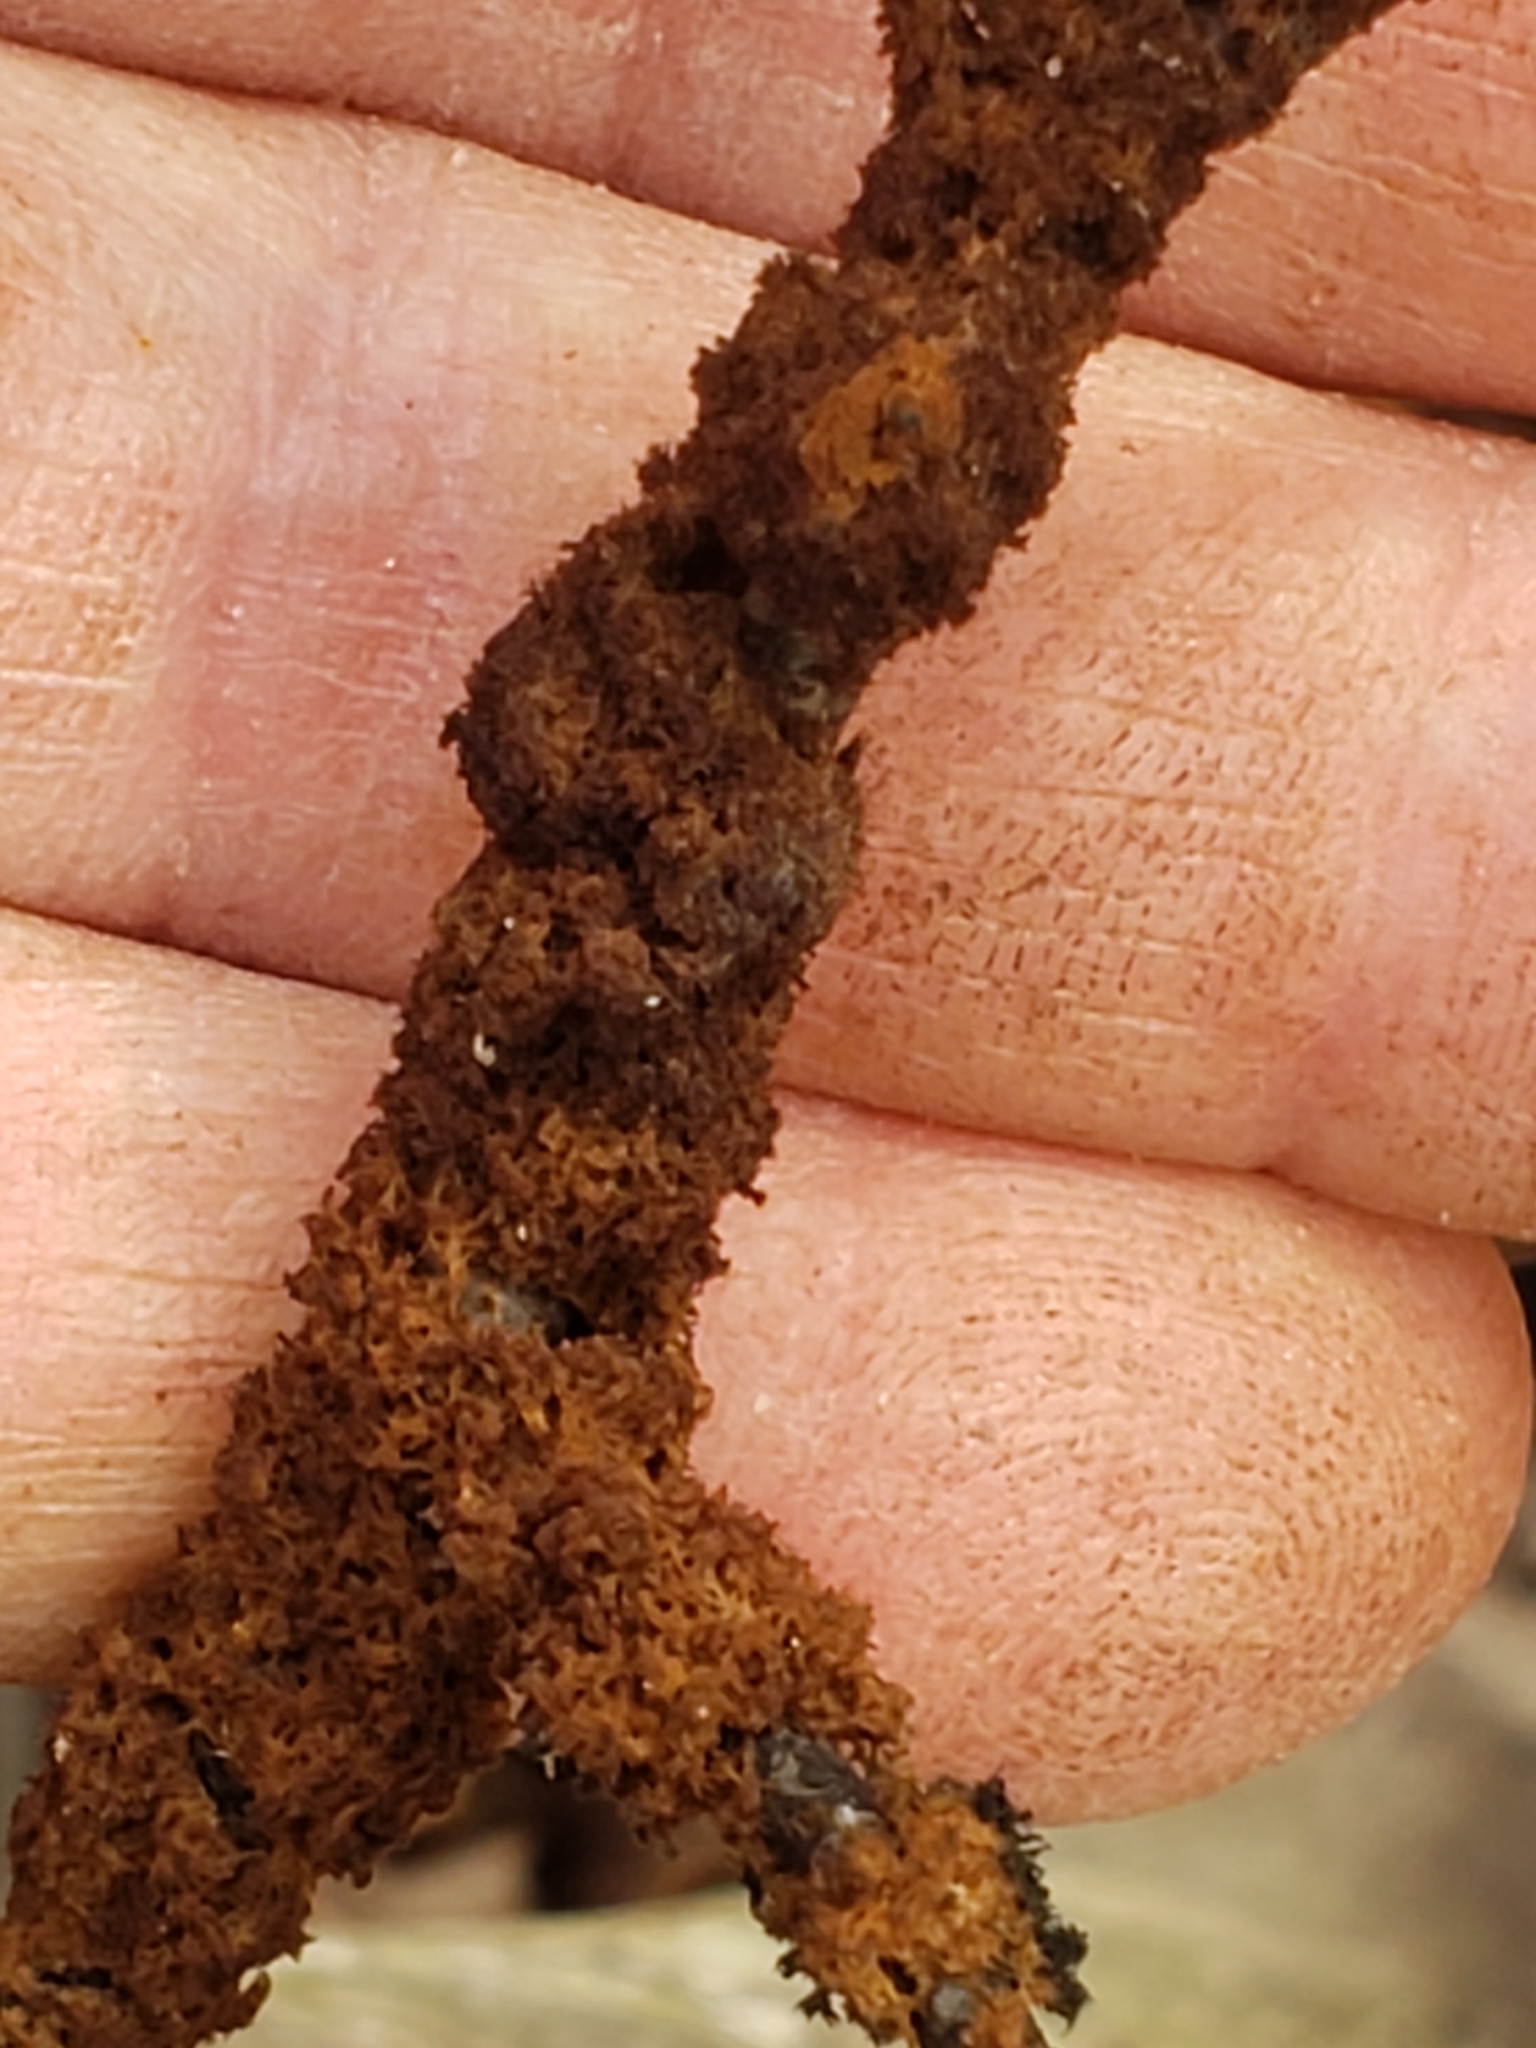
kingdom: Fungi
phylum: Ascomycota
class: Dothideomycetes
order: Capnodiales
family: Capnodiaceae
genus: Scorias
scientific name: Scorias spongiosa
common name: Black sooty mold
